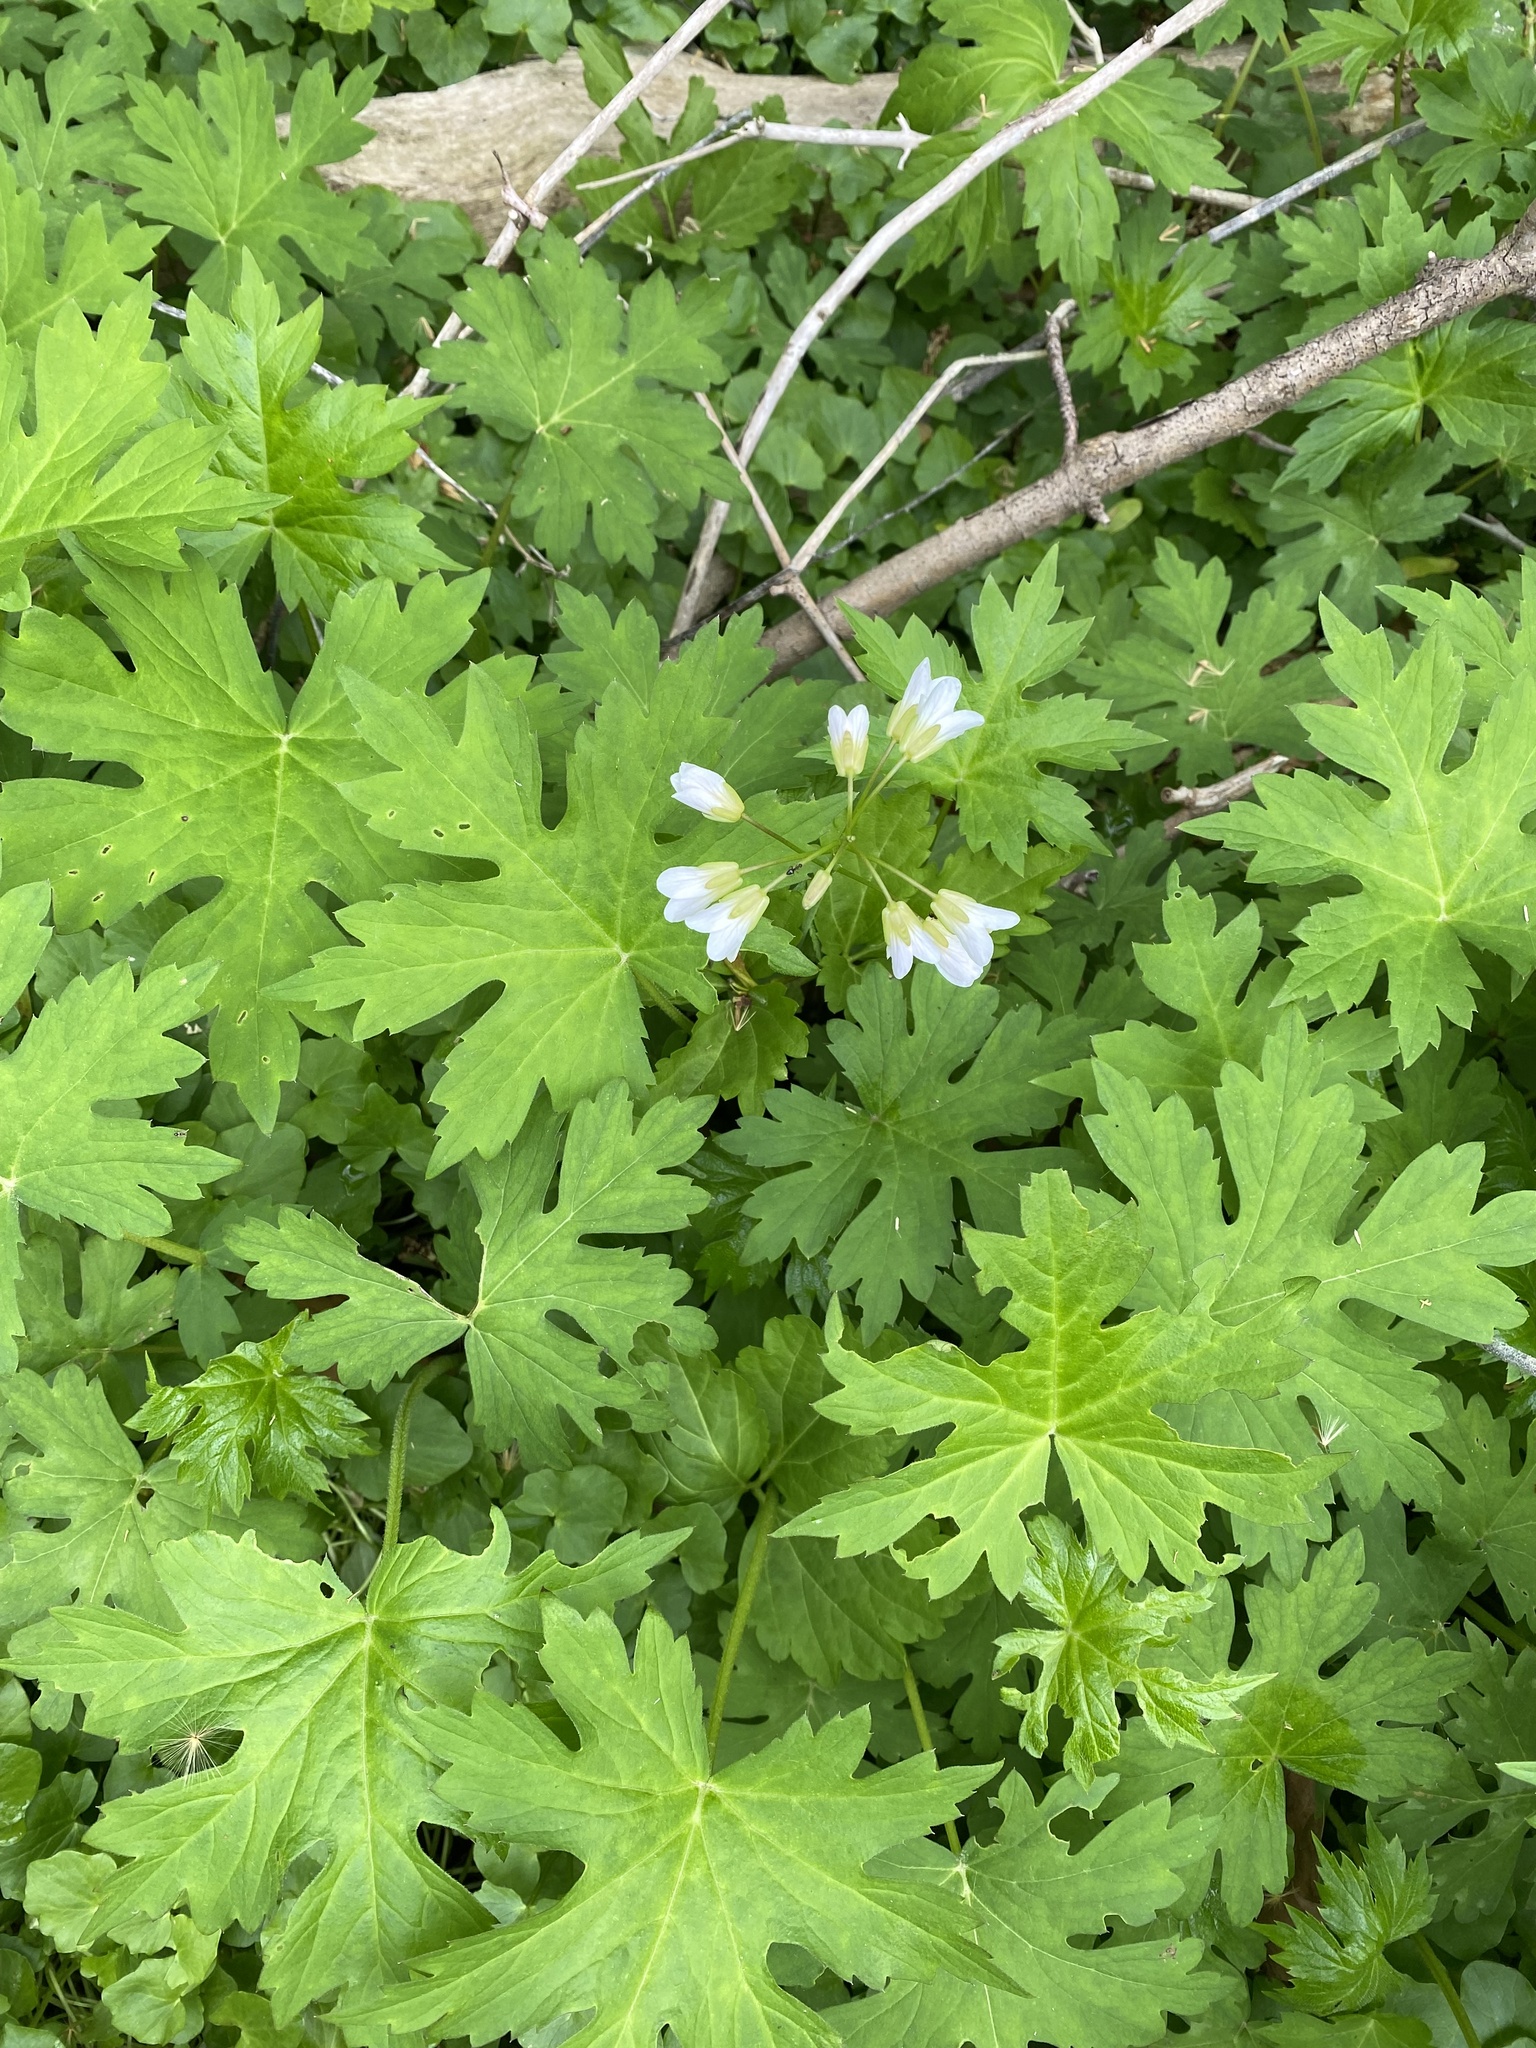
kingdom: Plantae
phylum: Tracheophyta
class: Magnoliopsida
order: Brassicales
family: Brassicaceae
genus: Cardamine
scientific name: Cardamine
